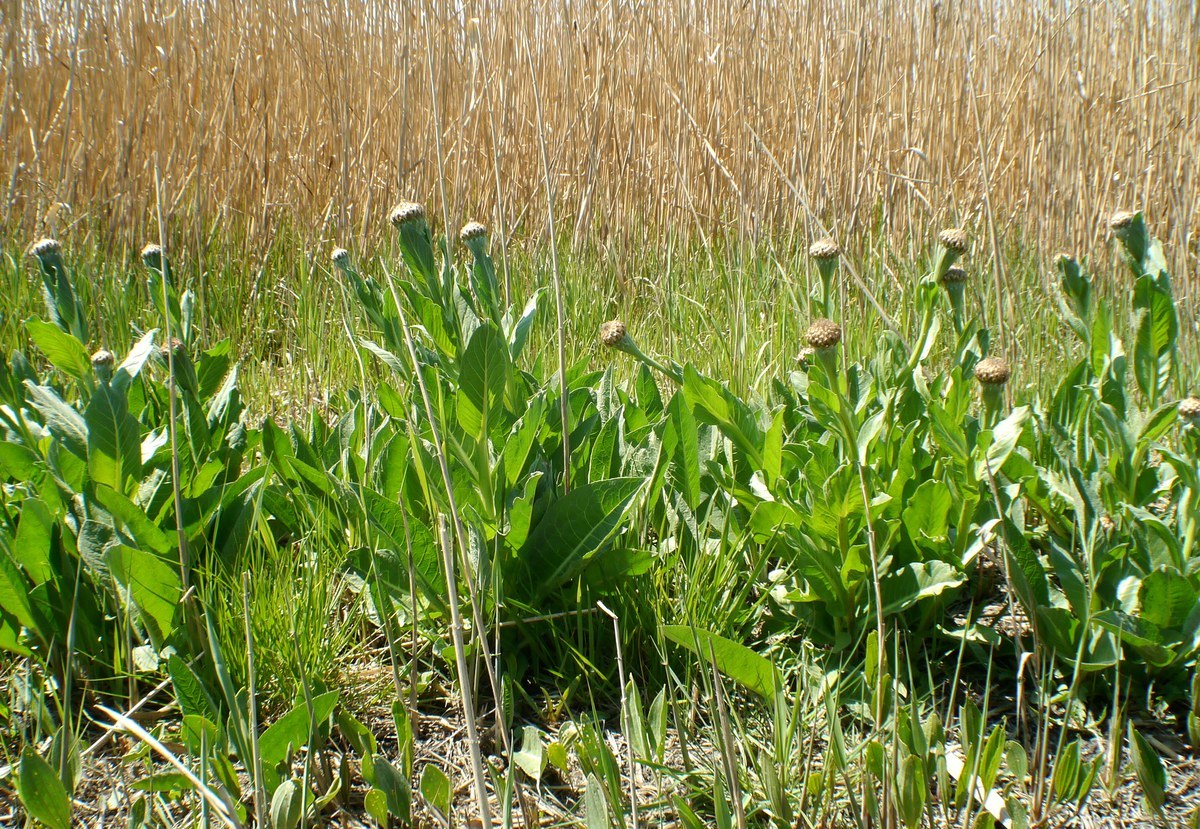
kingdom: Plantae
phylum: Tracheophyta
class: Magnoliopsida
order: Asterales
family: Asteraceae
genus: Leuzea
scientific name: Leuzea carthamoides
